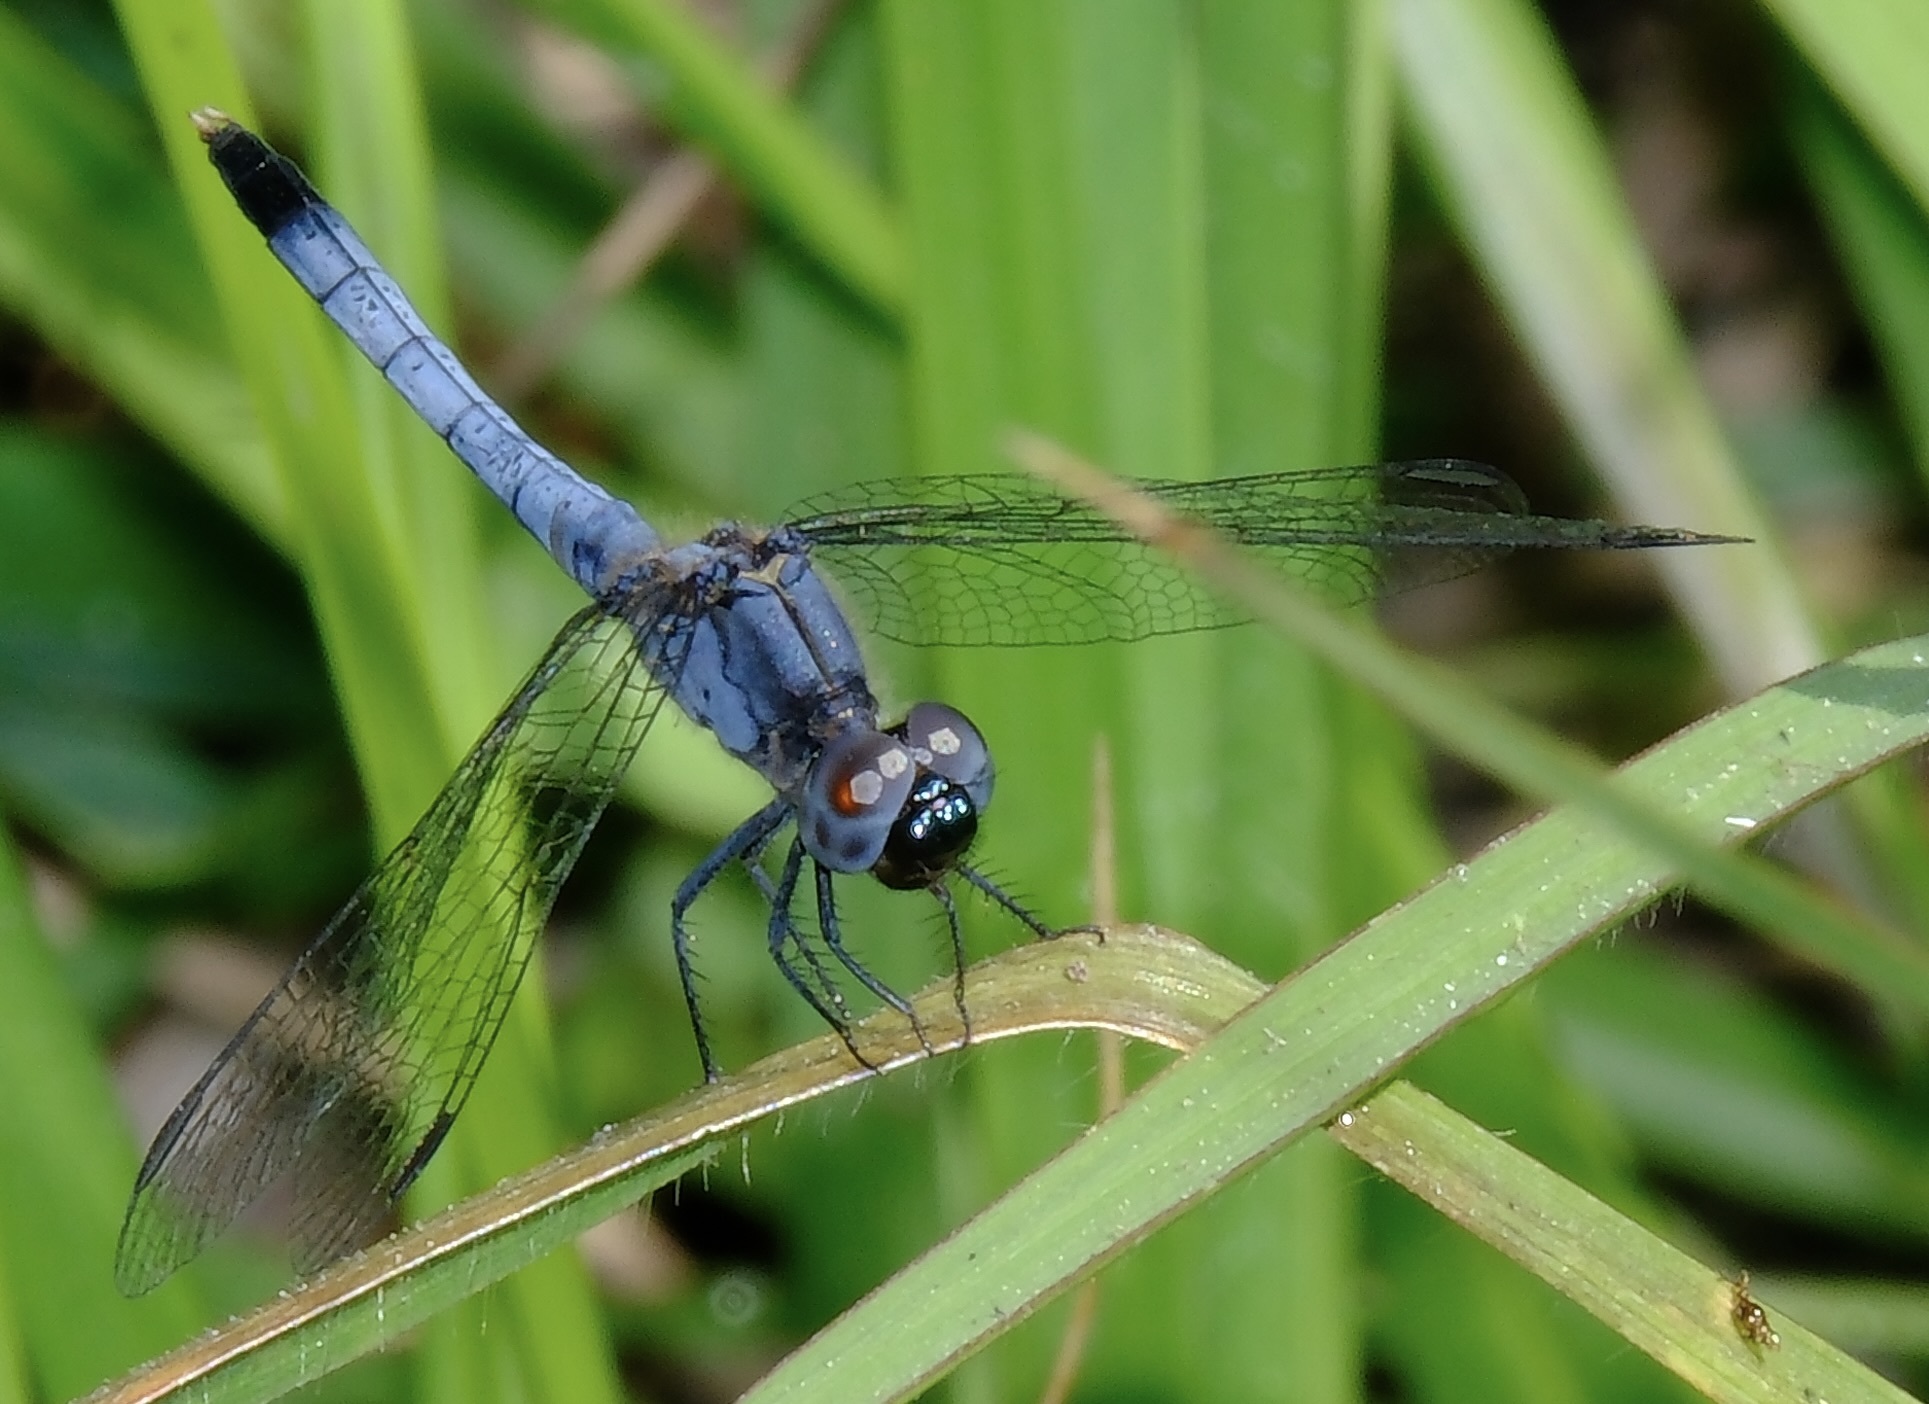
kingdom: Animalia
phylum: Arthropoda
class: Insecta
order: Odonata
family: Libellulidae
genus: Erythrodiplax
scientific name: Erythrodiplax minuscula
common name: Little blue dragonlet
